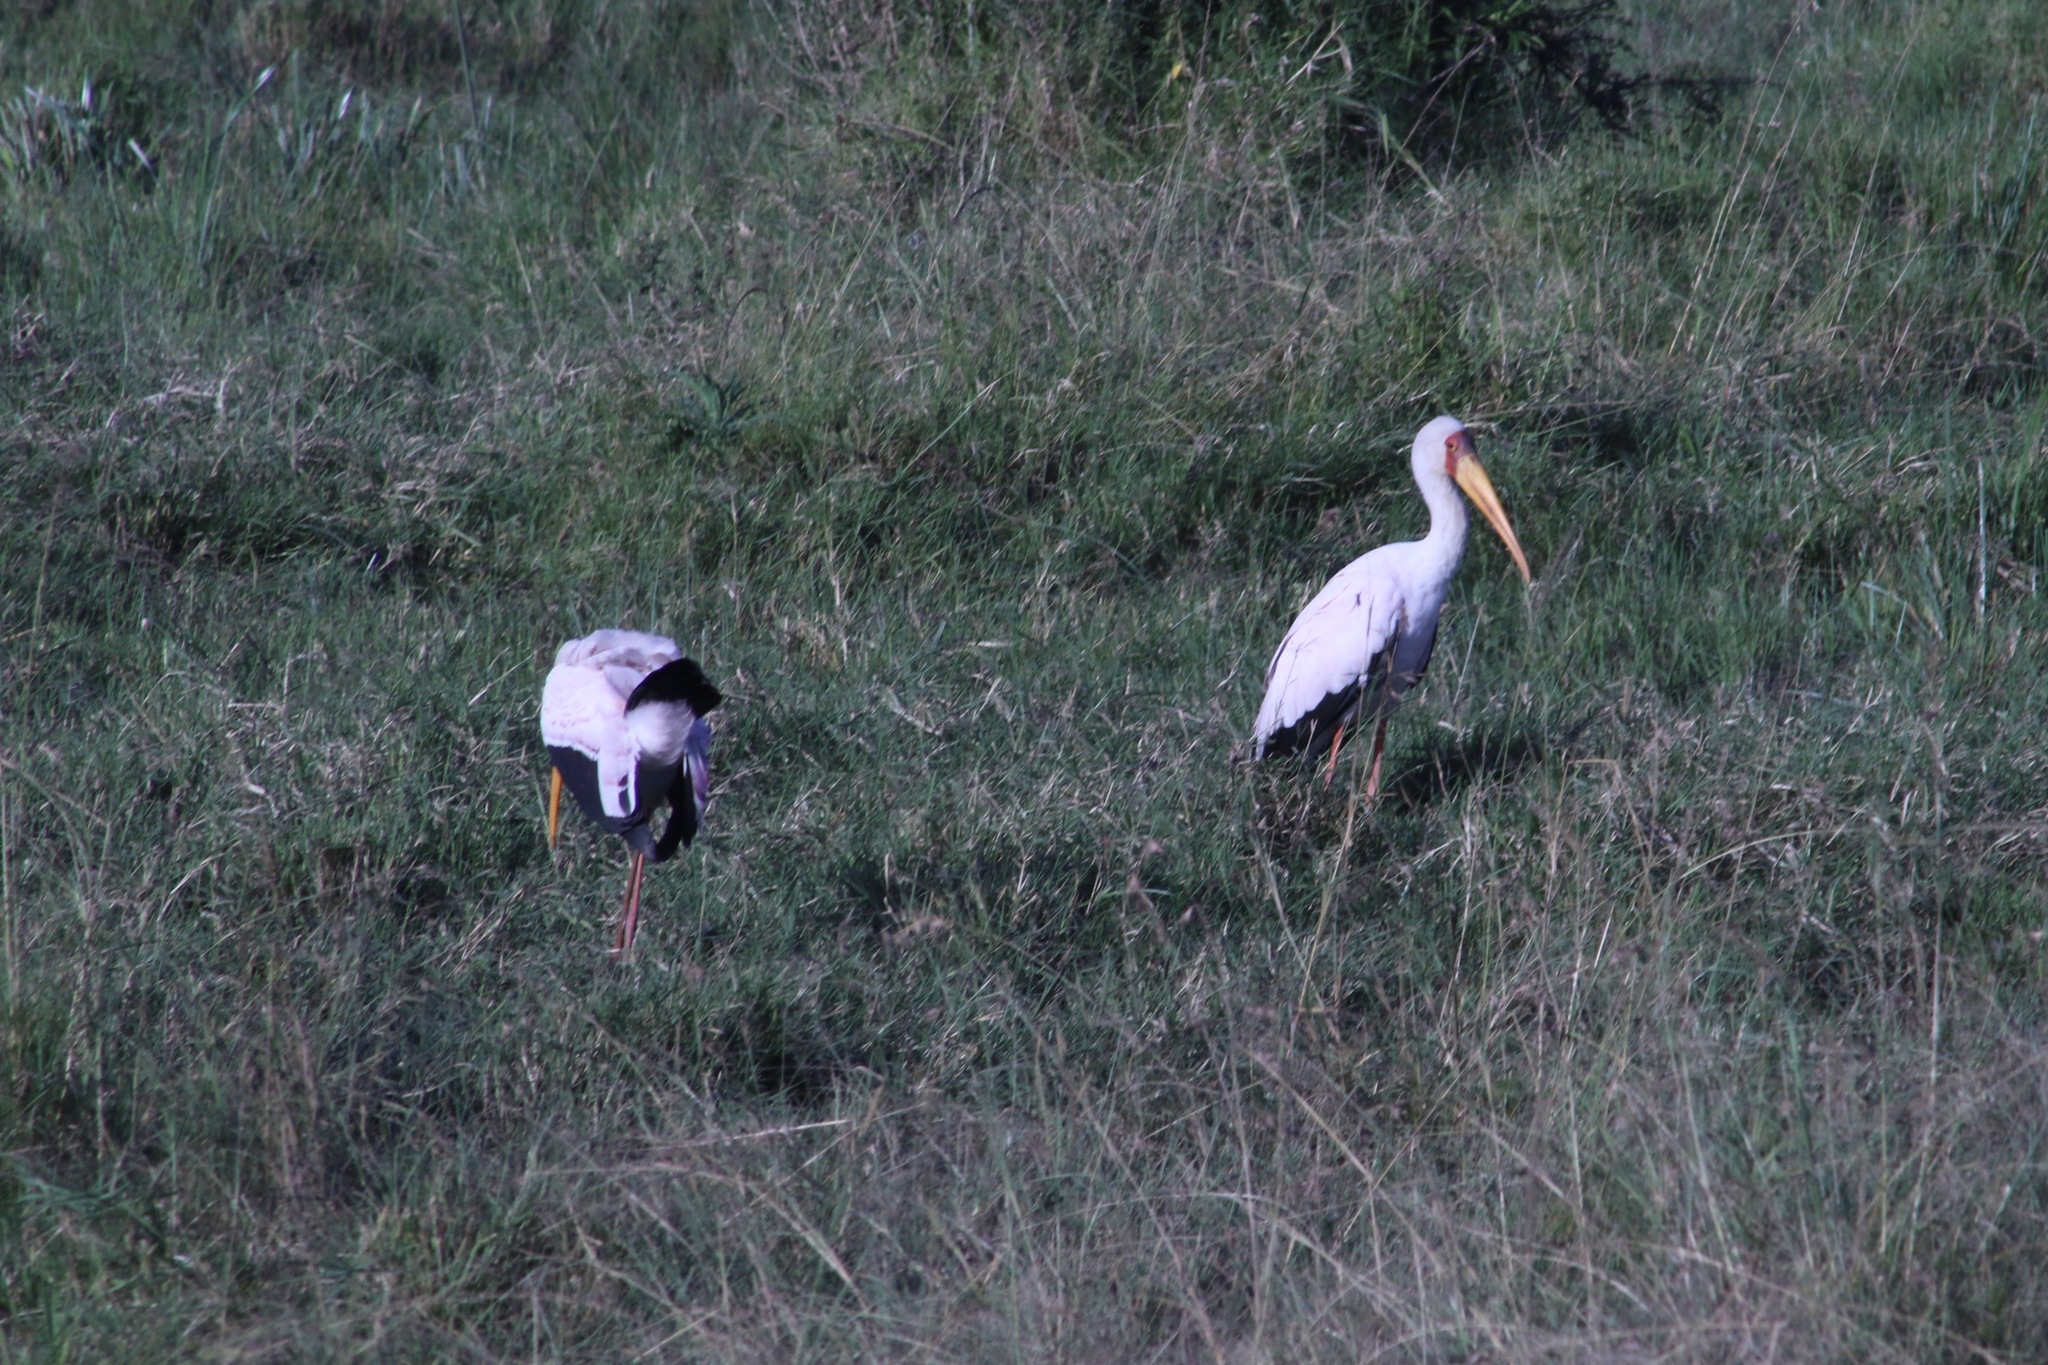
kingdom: Animalia
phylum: Chordata
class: Aves
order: Ciconiiformes
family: Ciconiidae
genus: Mycteria
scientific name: Mycteria ibis
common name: Yellow-billed stork
